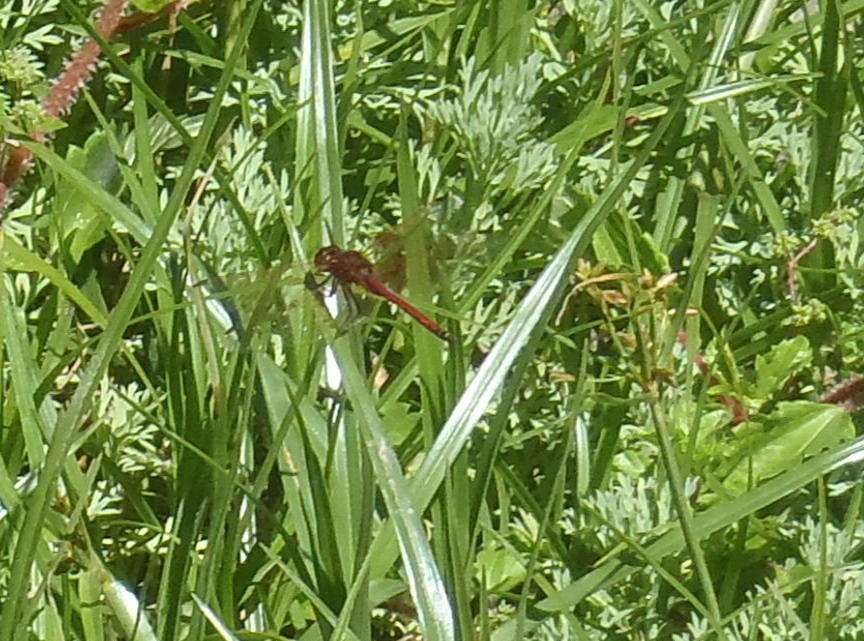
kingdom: Animalia
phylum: Arthropoda
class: Insecta
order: Odonata
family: Libellulidae
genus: Trithemis
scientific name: Trithemis arteriosa
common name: Red-veined dropwing
